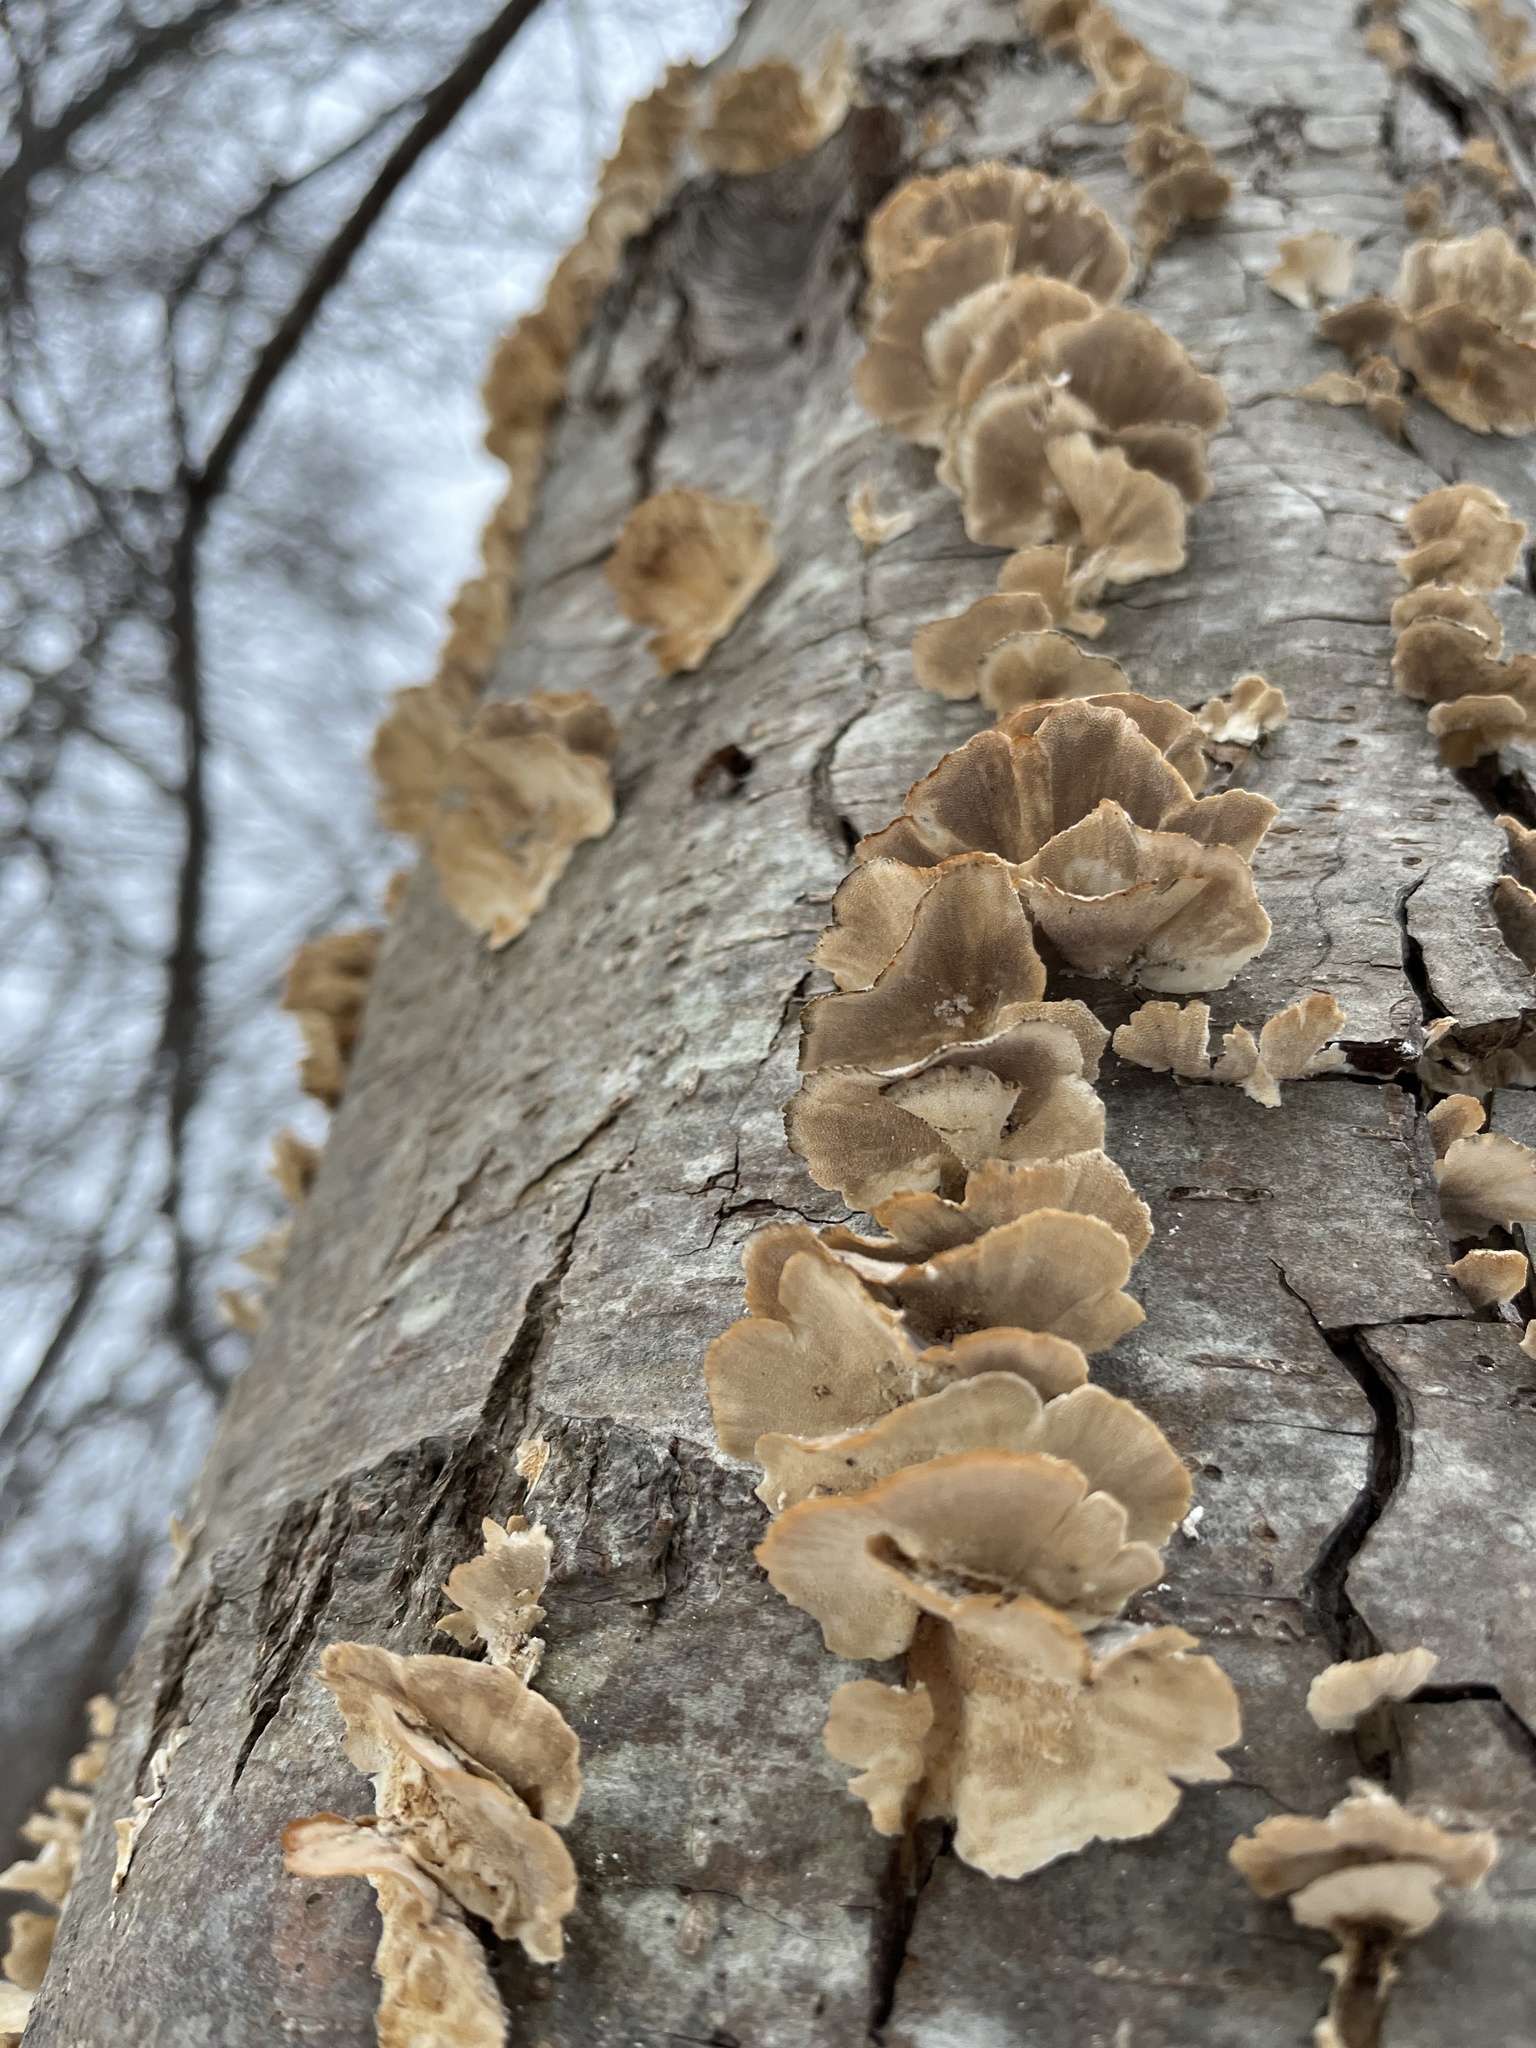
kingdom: Fungi
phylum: Basidiomycota
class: Agaricomycetes
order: Polyporales
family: Polyporaceae
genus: Trametes
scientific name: Trametes versicolor
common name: Turkeytail
